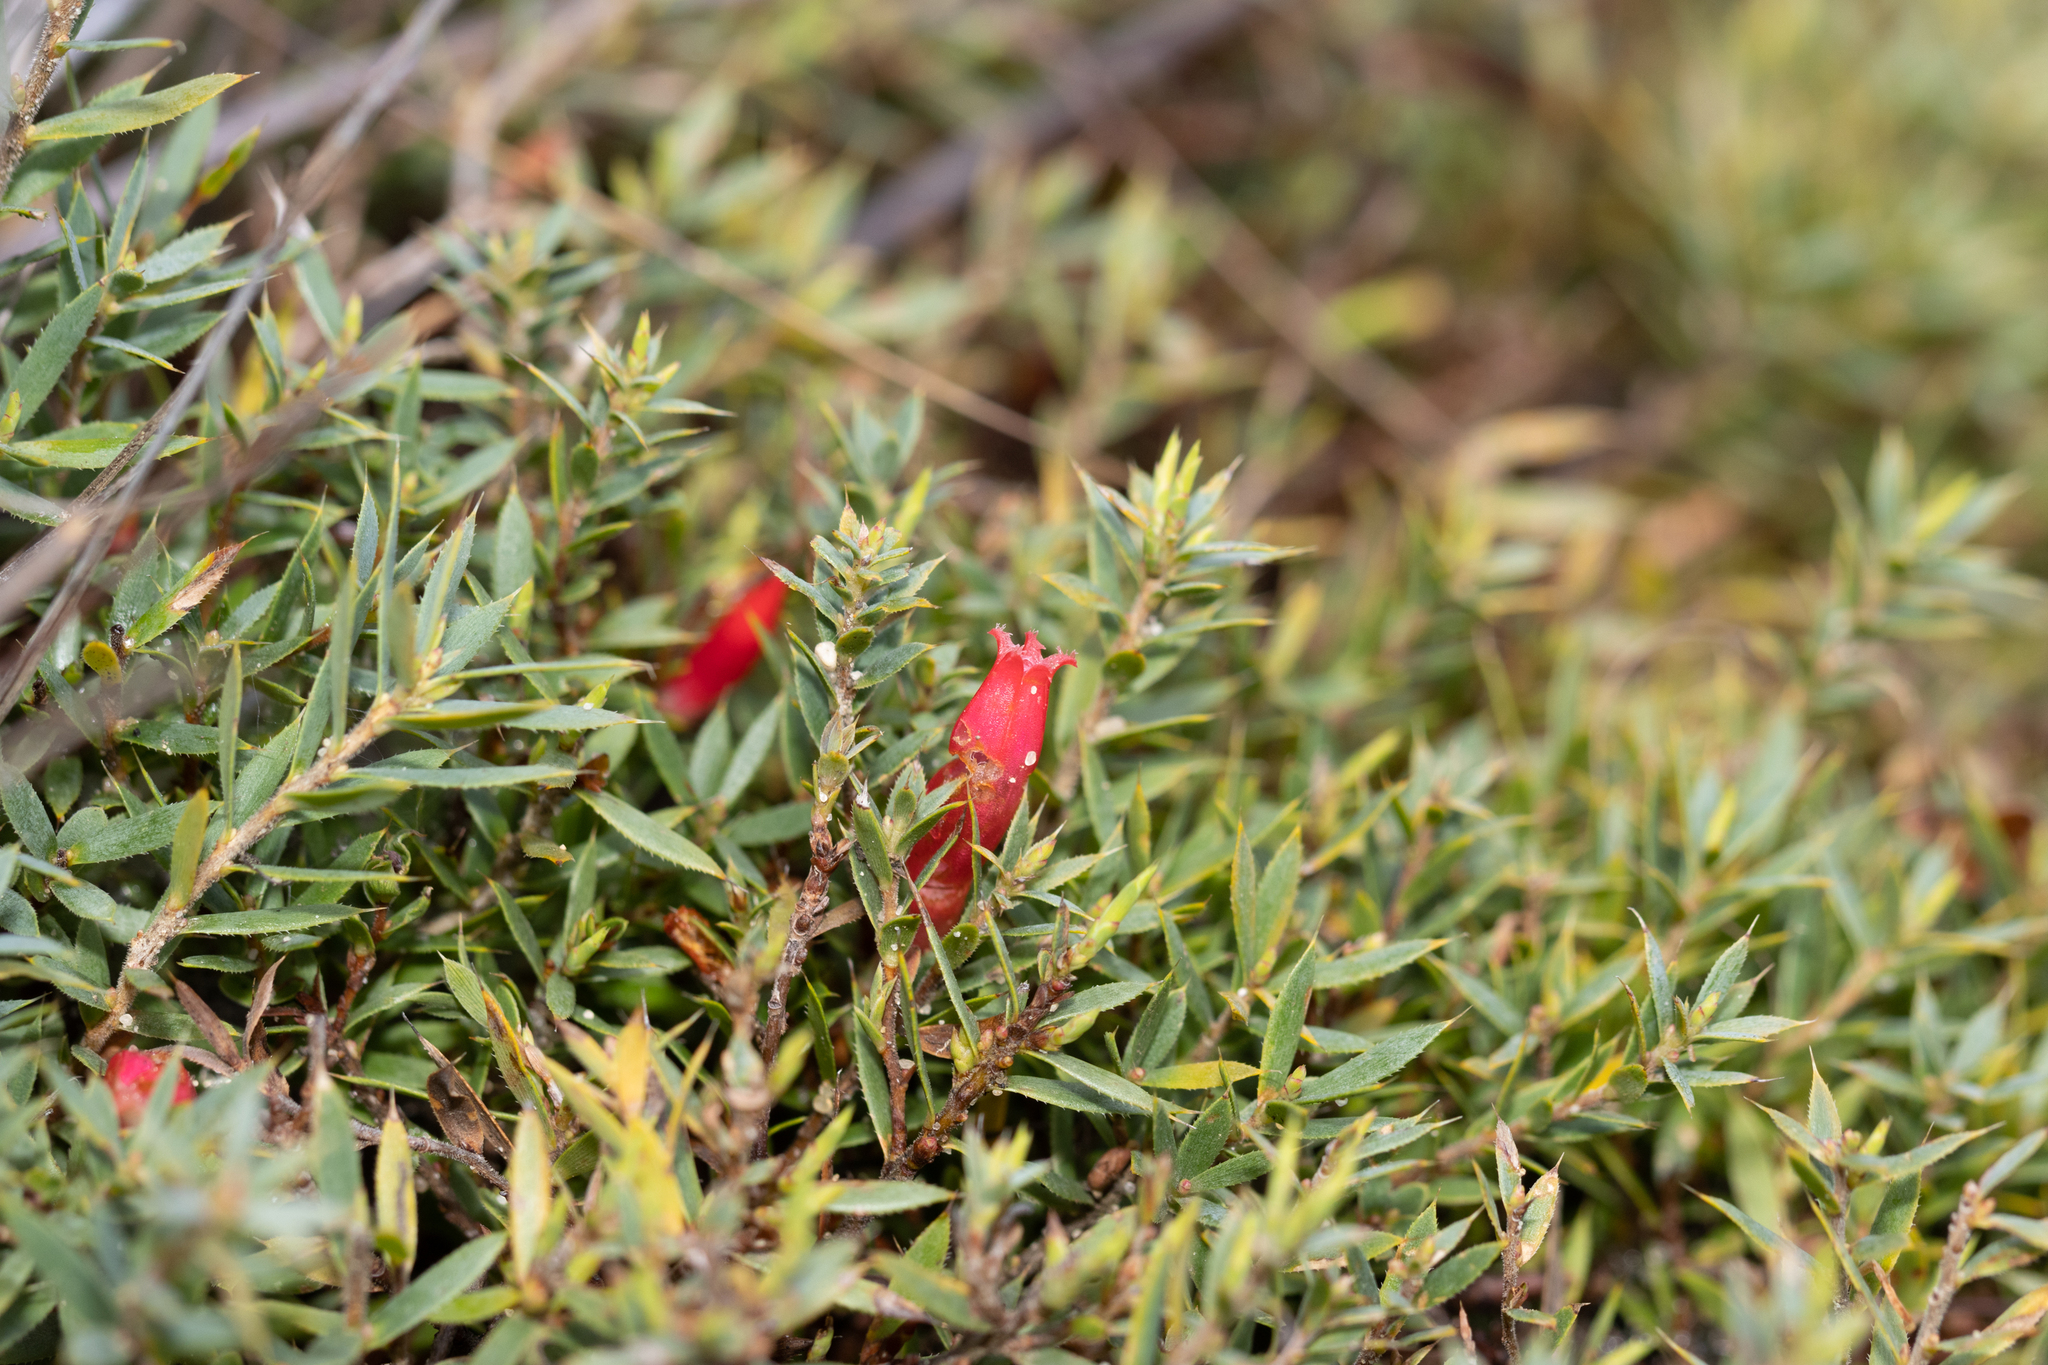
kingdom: Plantae
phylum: Tracheophyta
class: Magnoliopsida
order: Ericales
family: Ericaceae
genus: Styphelia
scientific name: Styphelia humifusa
